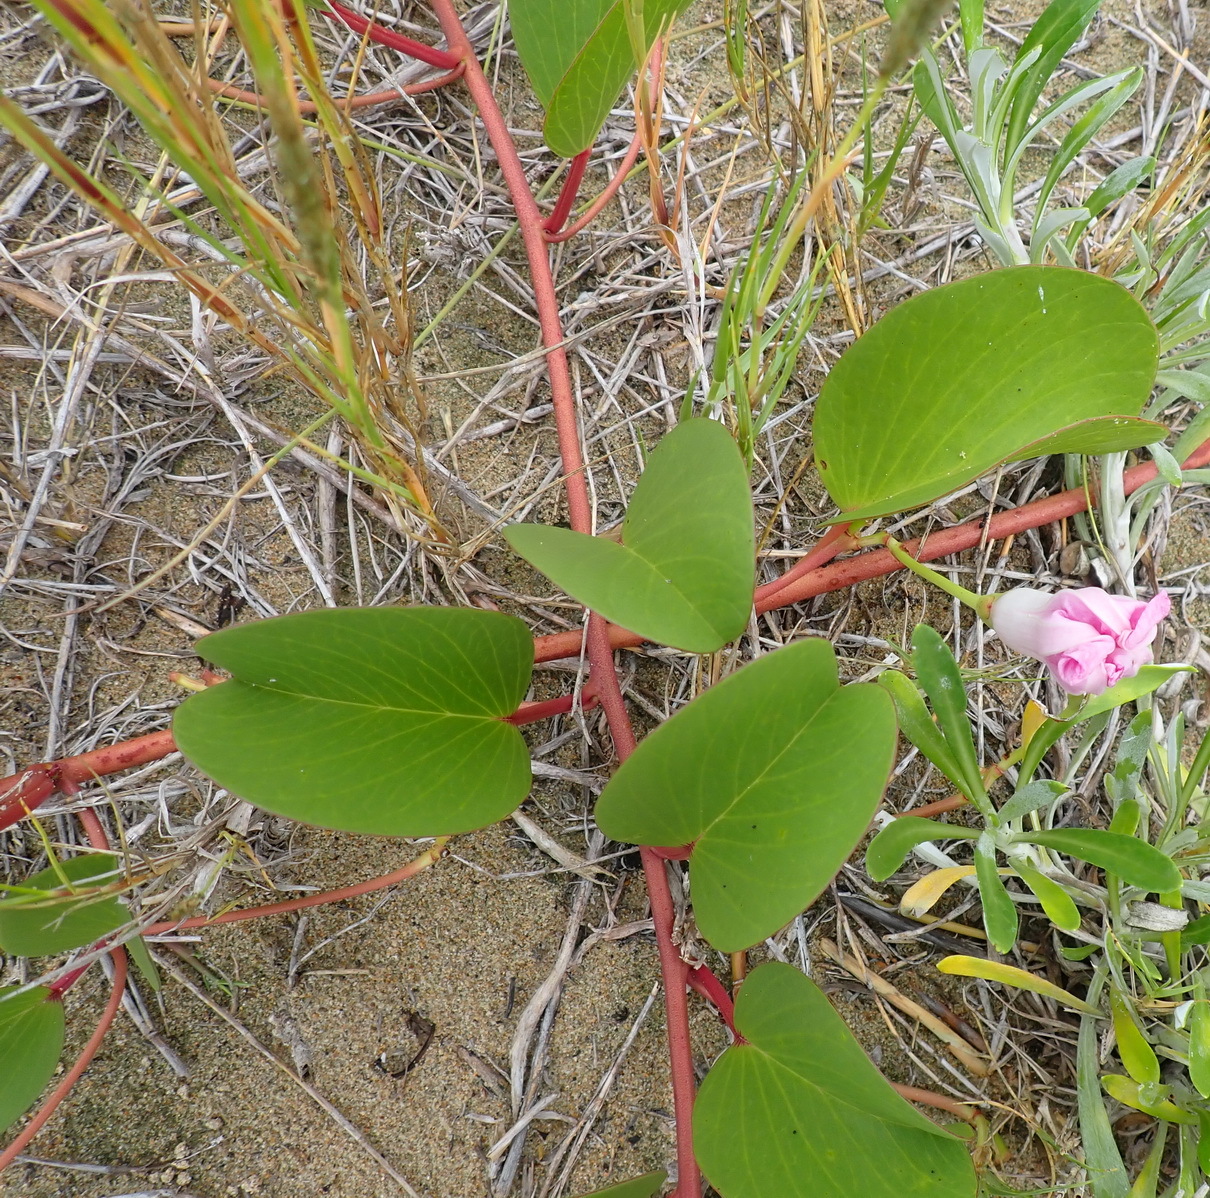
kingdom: Plantae
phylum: Tracheophyta
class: Magnoliopsida
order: Solanales
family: Convolvulaceae
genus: Ipomoea
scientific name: Ipomoea pes-caprae
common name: Beach morning glory
